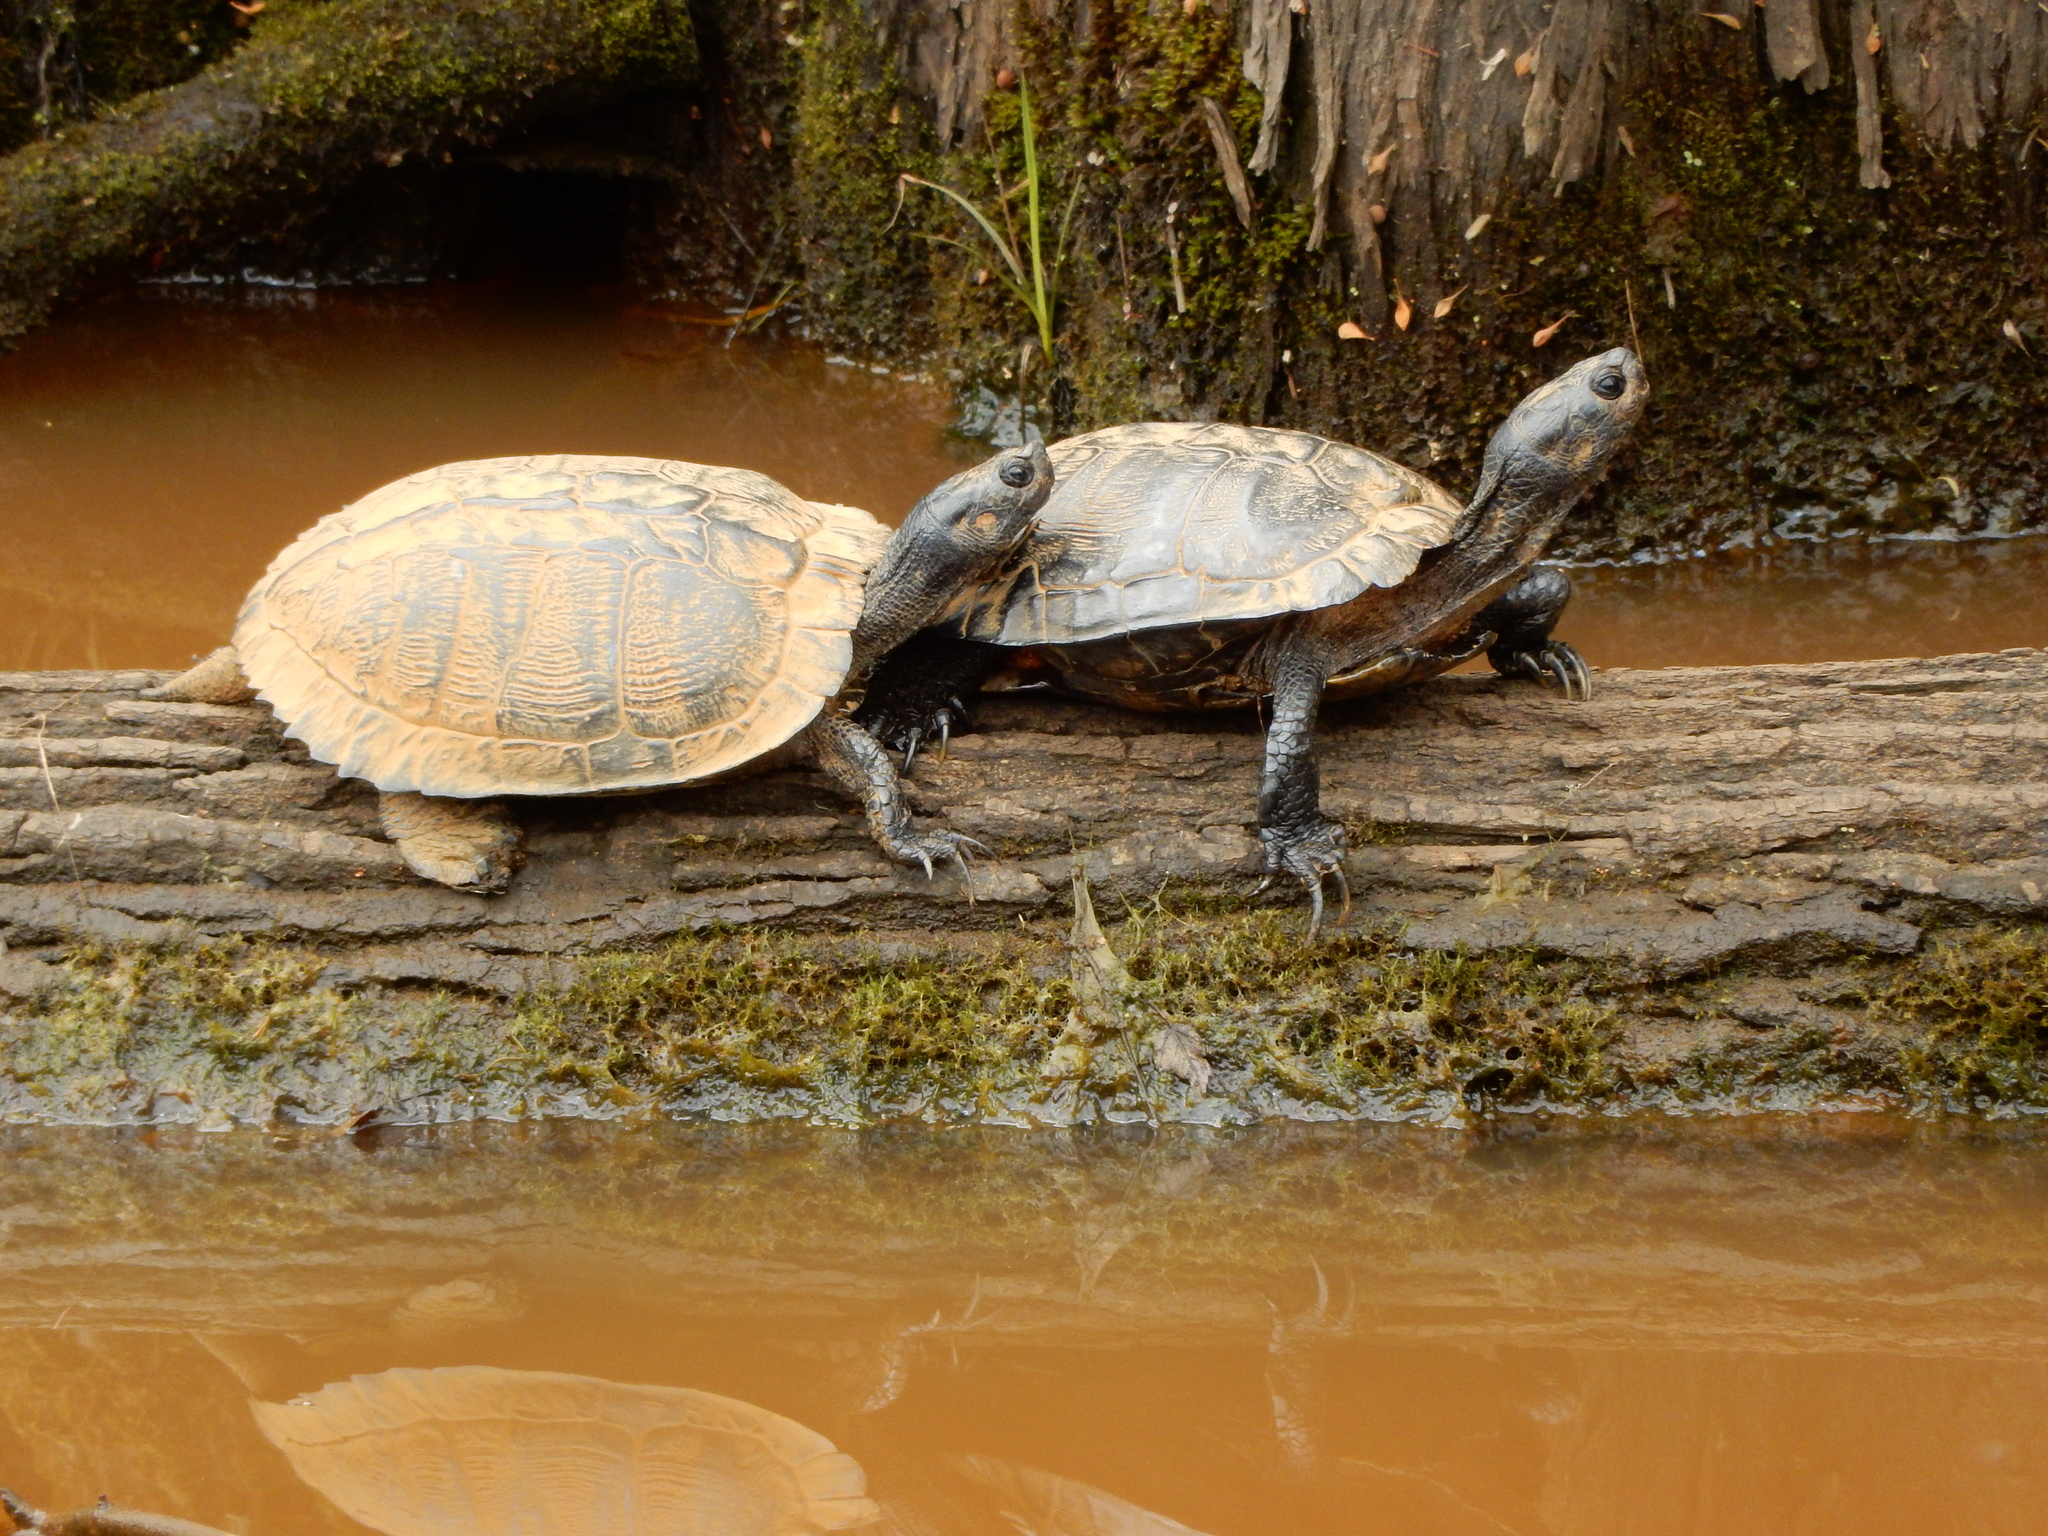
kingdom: Animalia
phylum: Chordata
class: Testudines
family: Emydidae
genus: Trachemys
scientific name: Trachemys scripta
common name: Slider
